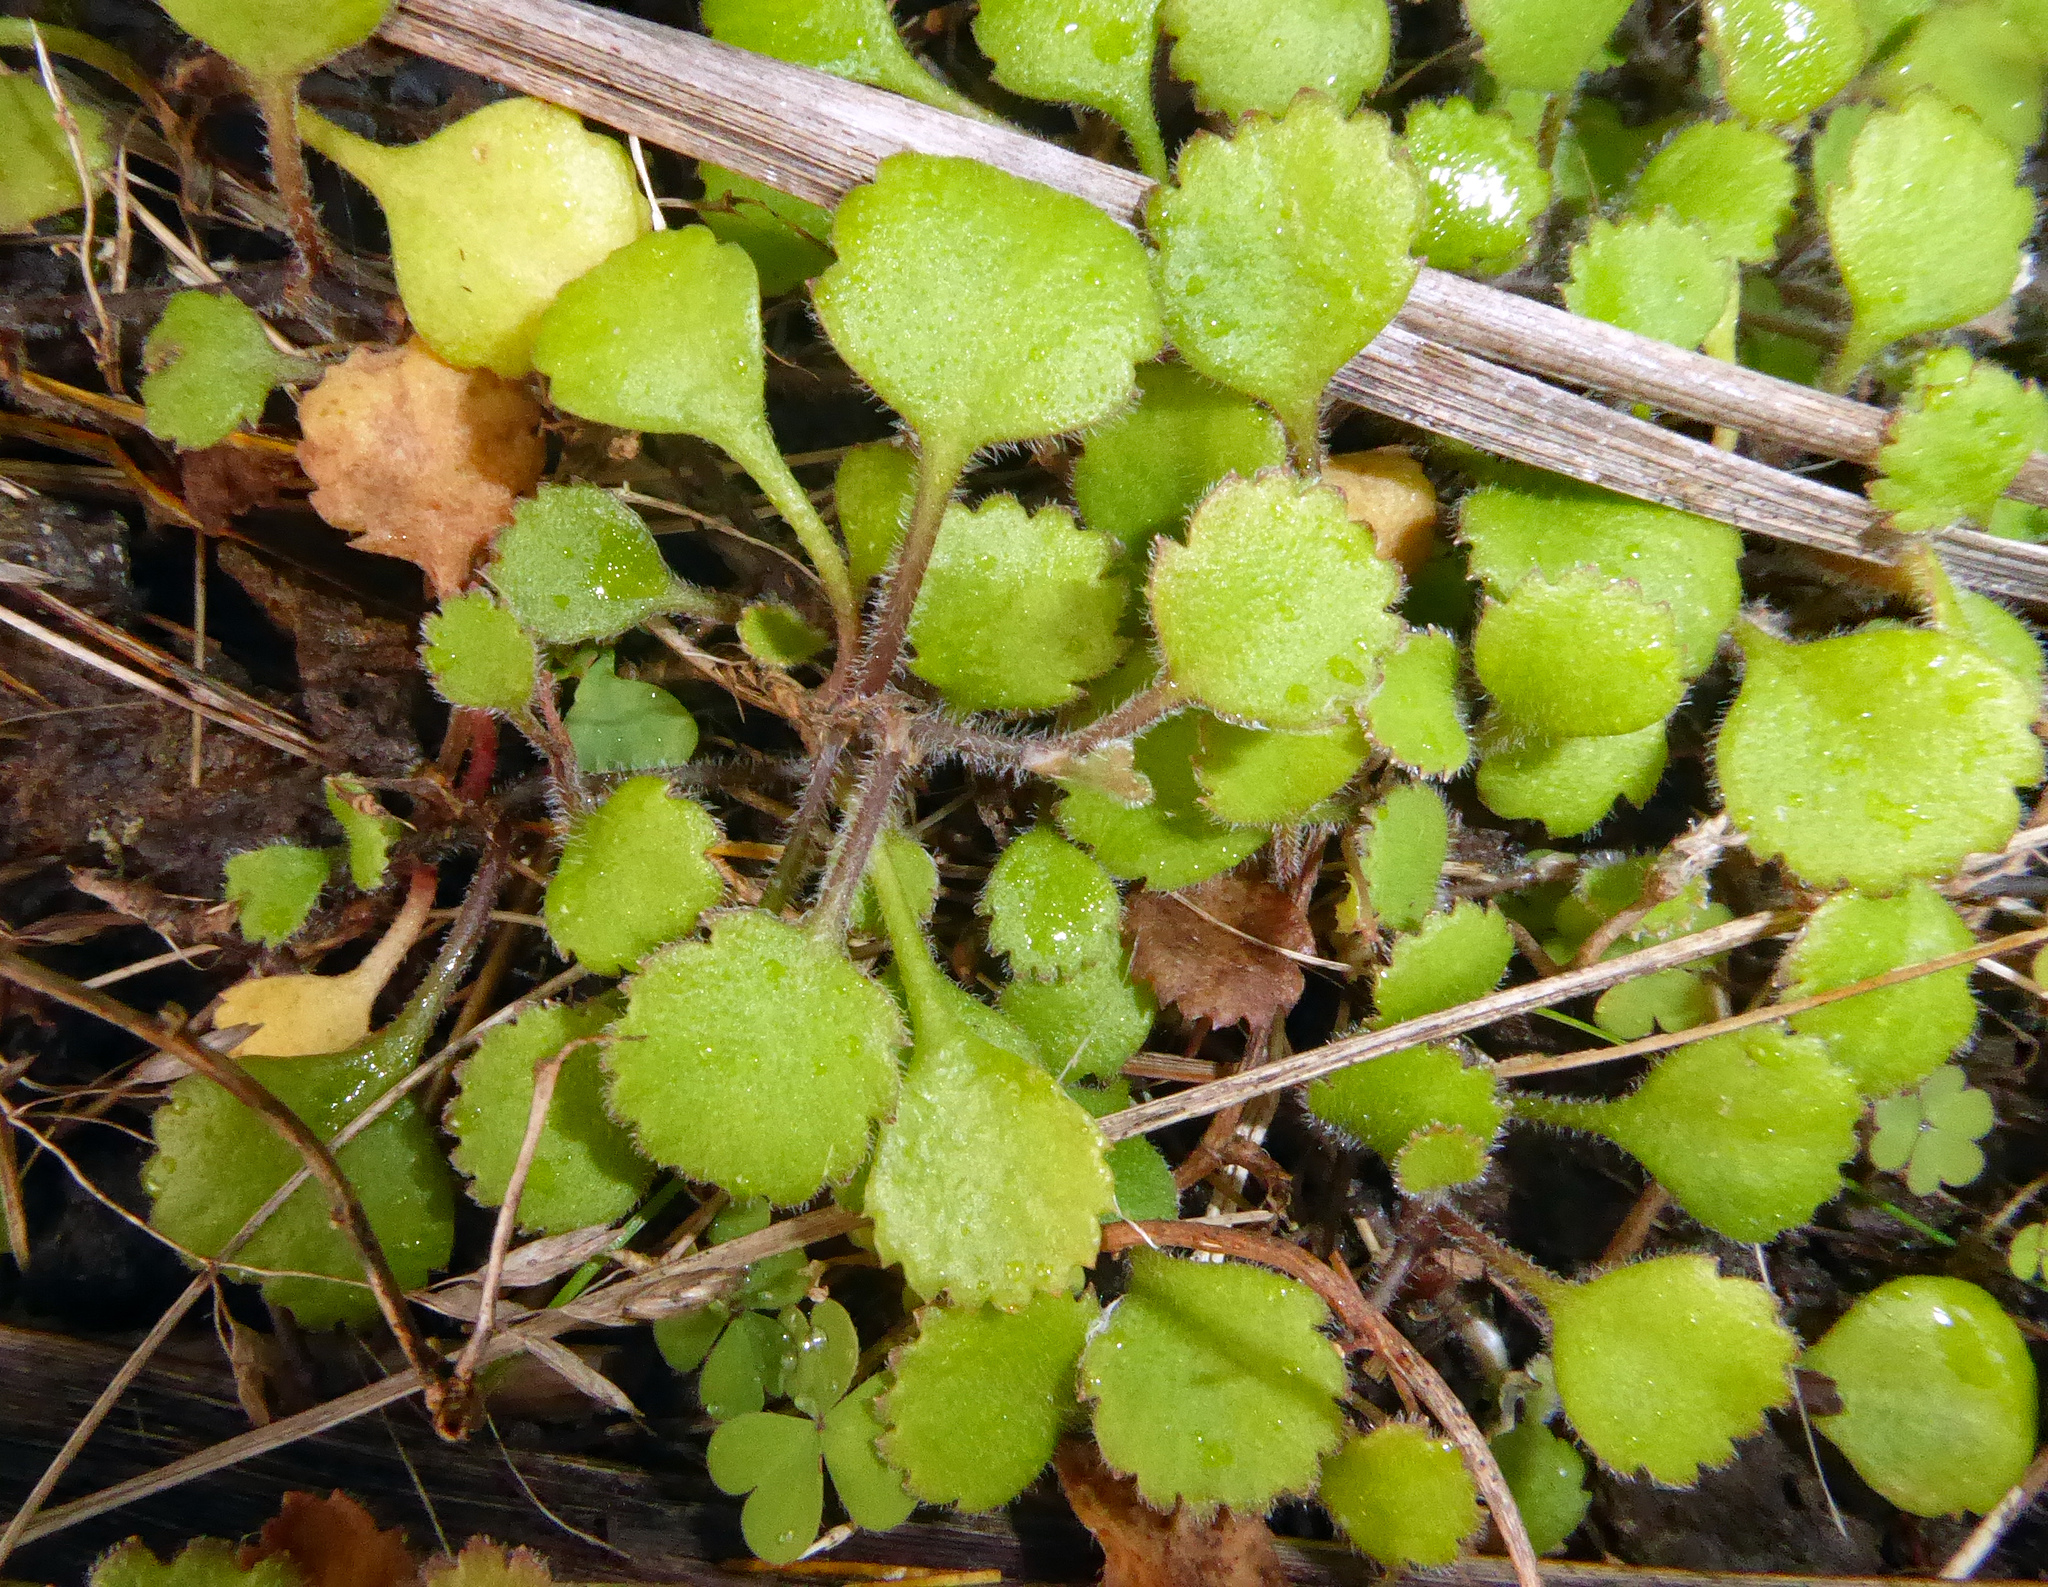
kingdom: Plantae
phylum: Tracheophyta
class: Magnoliopsida
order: Asterales
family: Asteraceae
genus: Leptinella
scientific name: Leptinella rotundata
